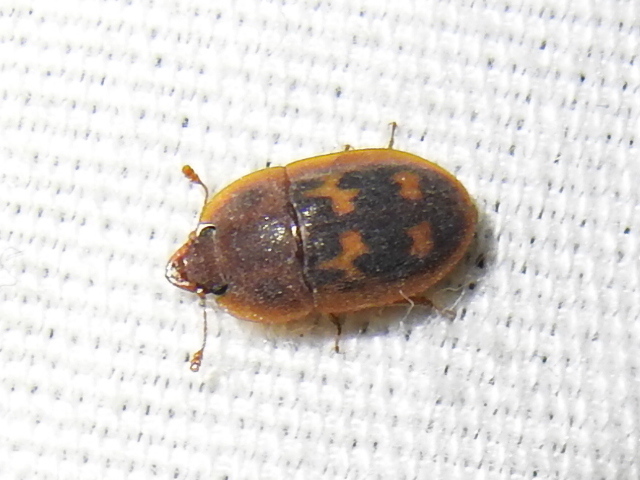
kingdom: Animalia
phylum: Arthropoda
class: Insecta
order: Coleoptera
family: Nitidulidae
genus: Prometopia
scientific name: Prometopia sexmaculata
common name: Six-spotted sap-feeding beetle
